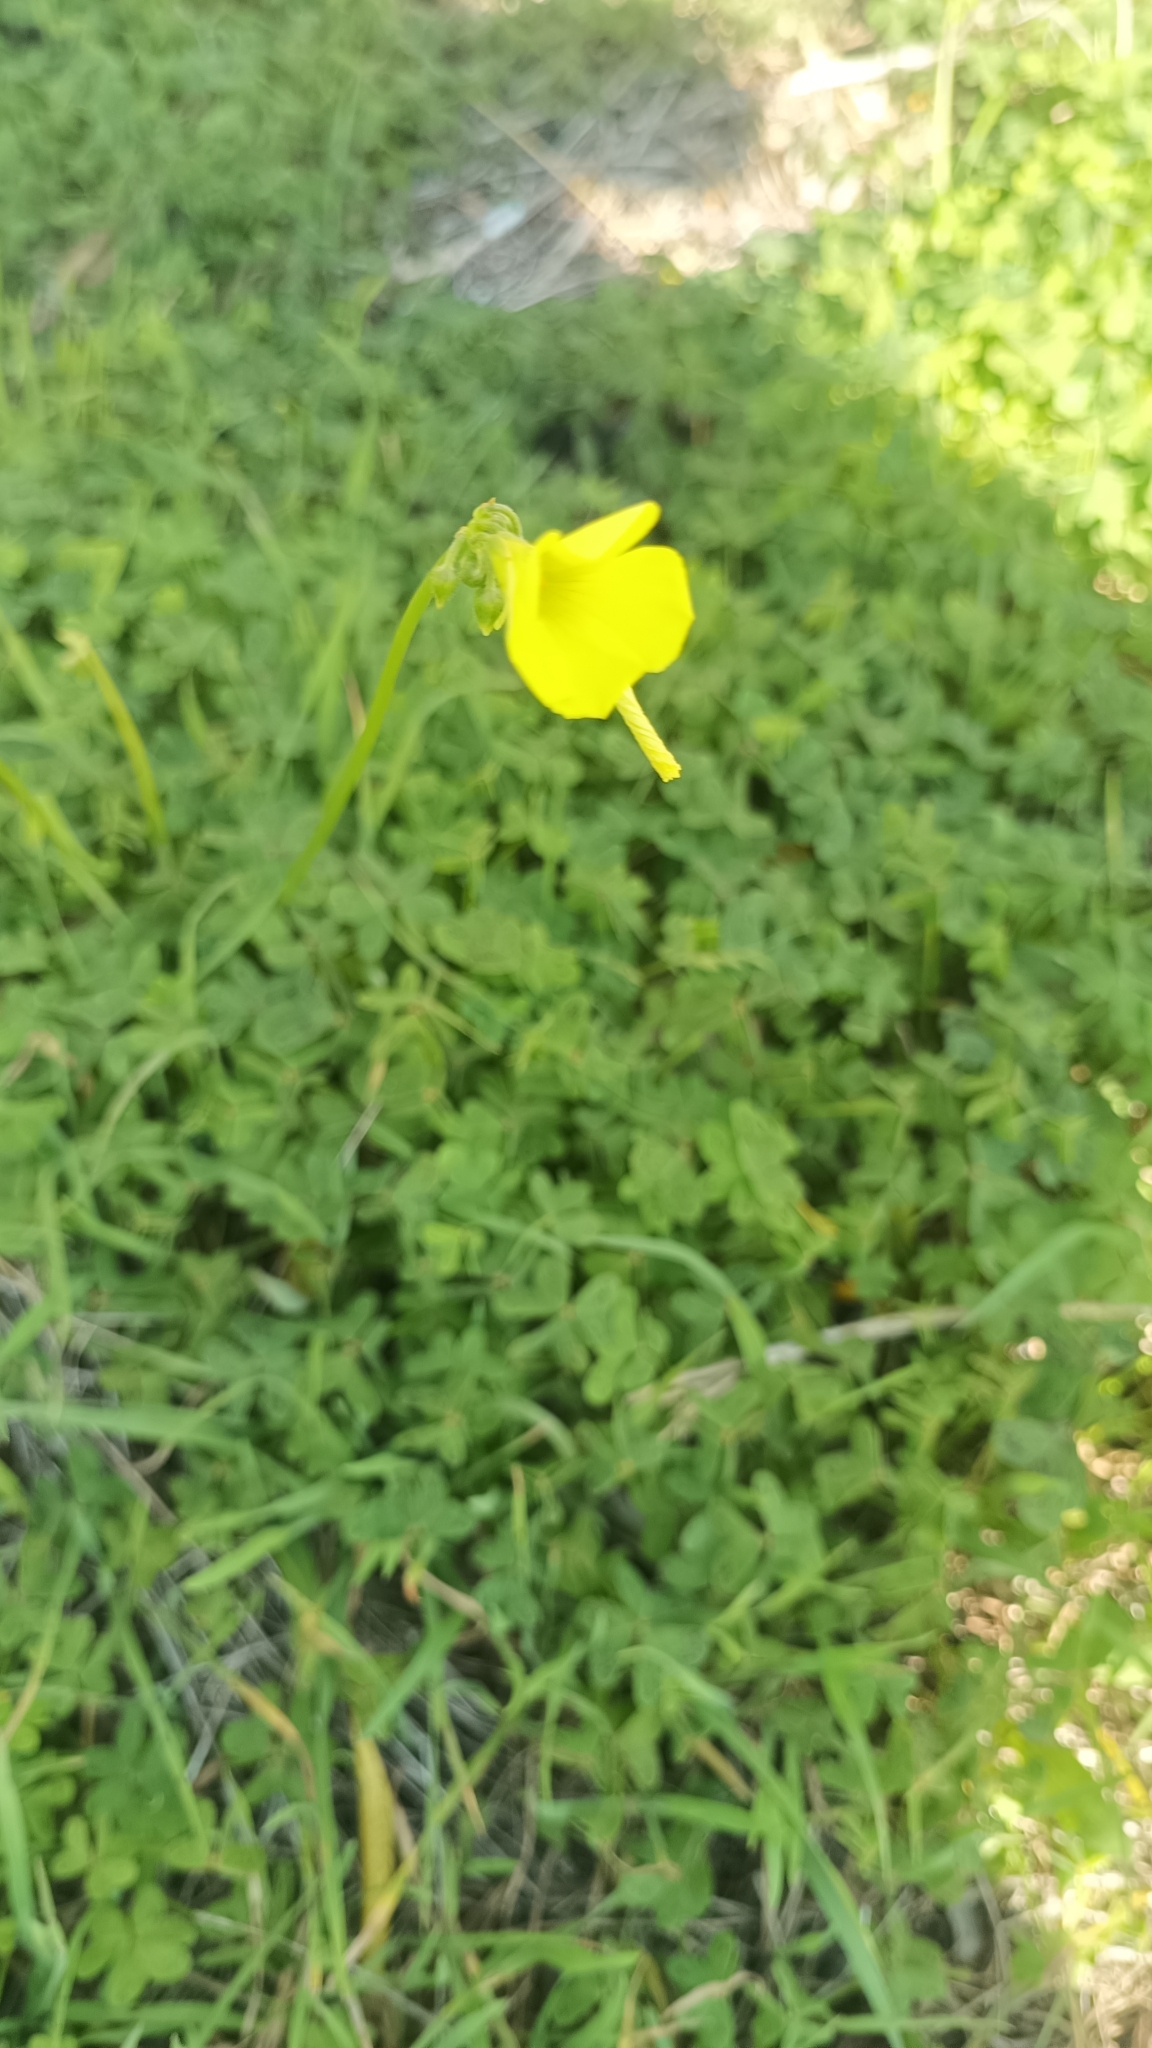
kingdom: Plantae
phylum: Tracheophyta
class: Magnoliopsida
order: Oxalidales
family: Oxalidaceae
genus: Oxalis
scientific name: Oxalis pes-caprae
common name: Bermuda-buttercup
